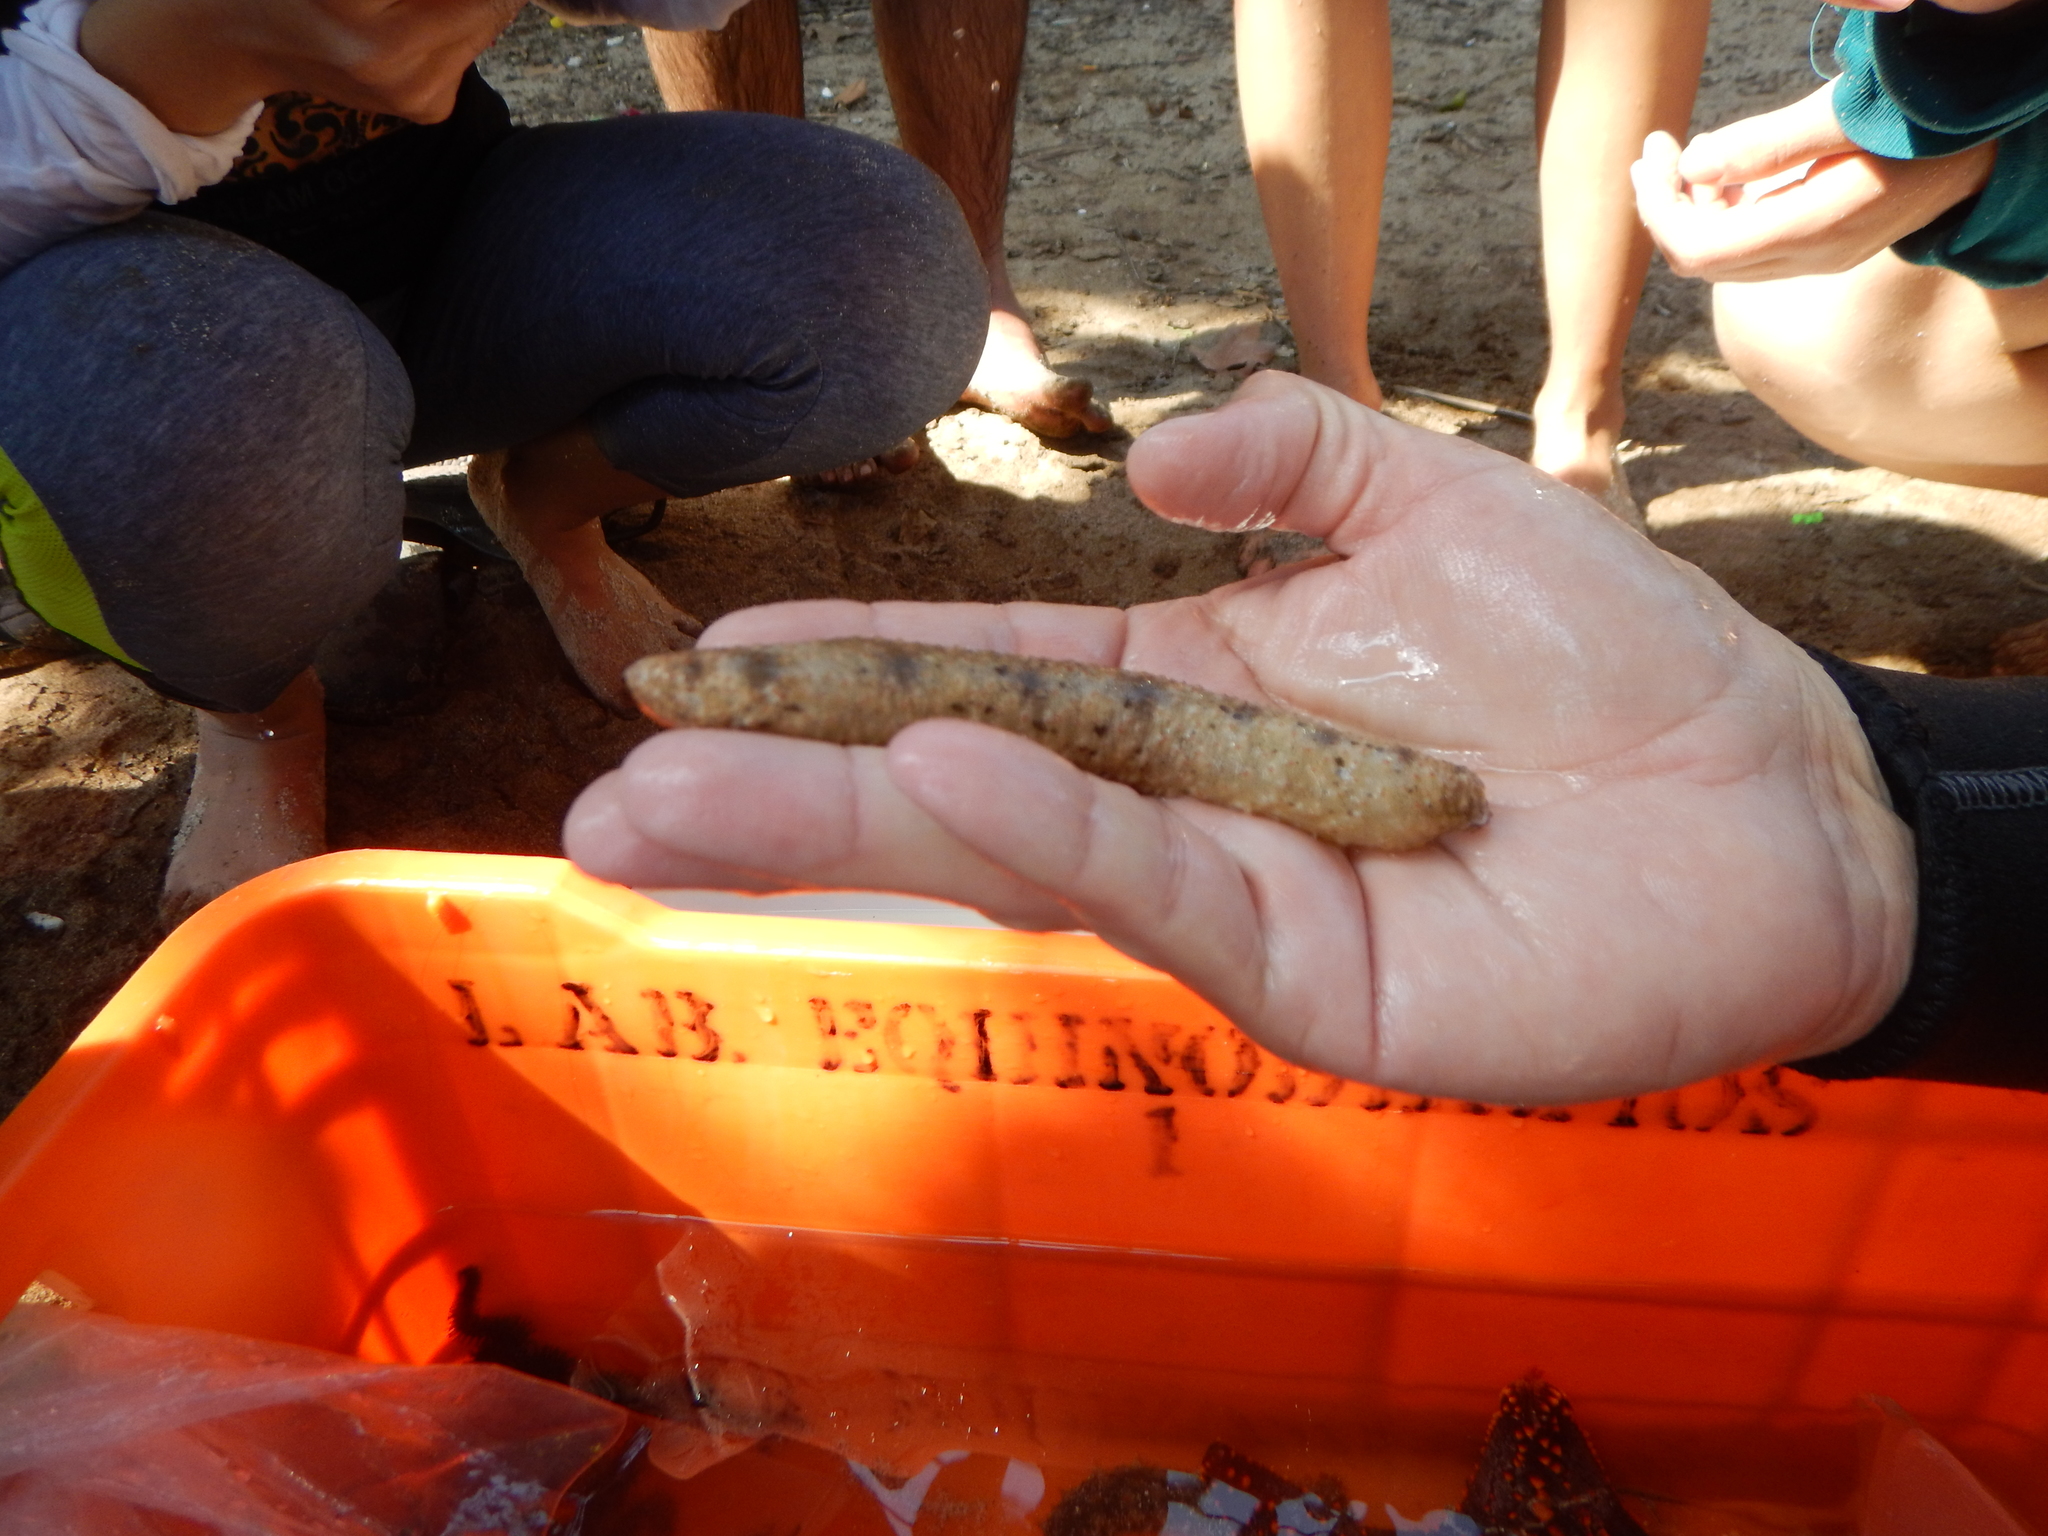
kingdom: Animalia
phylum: Echinodermata
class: Holothuroidea
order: Holothuriida
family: Holothuriidae
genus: Holothuria
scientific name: Holothuria arenicola
